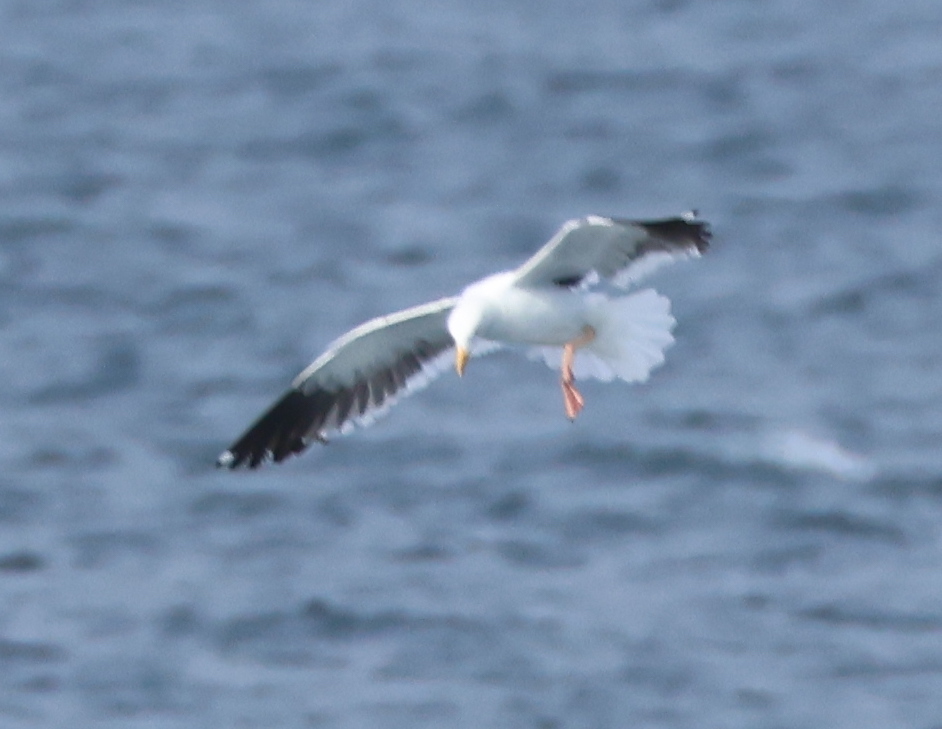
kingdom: Animalia
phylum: Chordata
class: Aves
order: Charadriiformes
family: Laridae
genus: Larus
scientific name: Larus occidentalis
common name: Western gull
